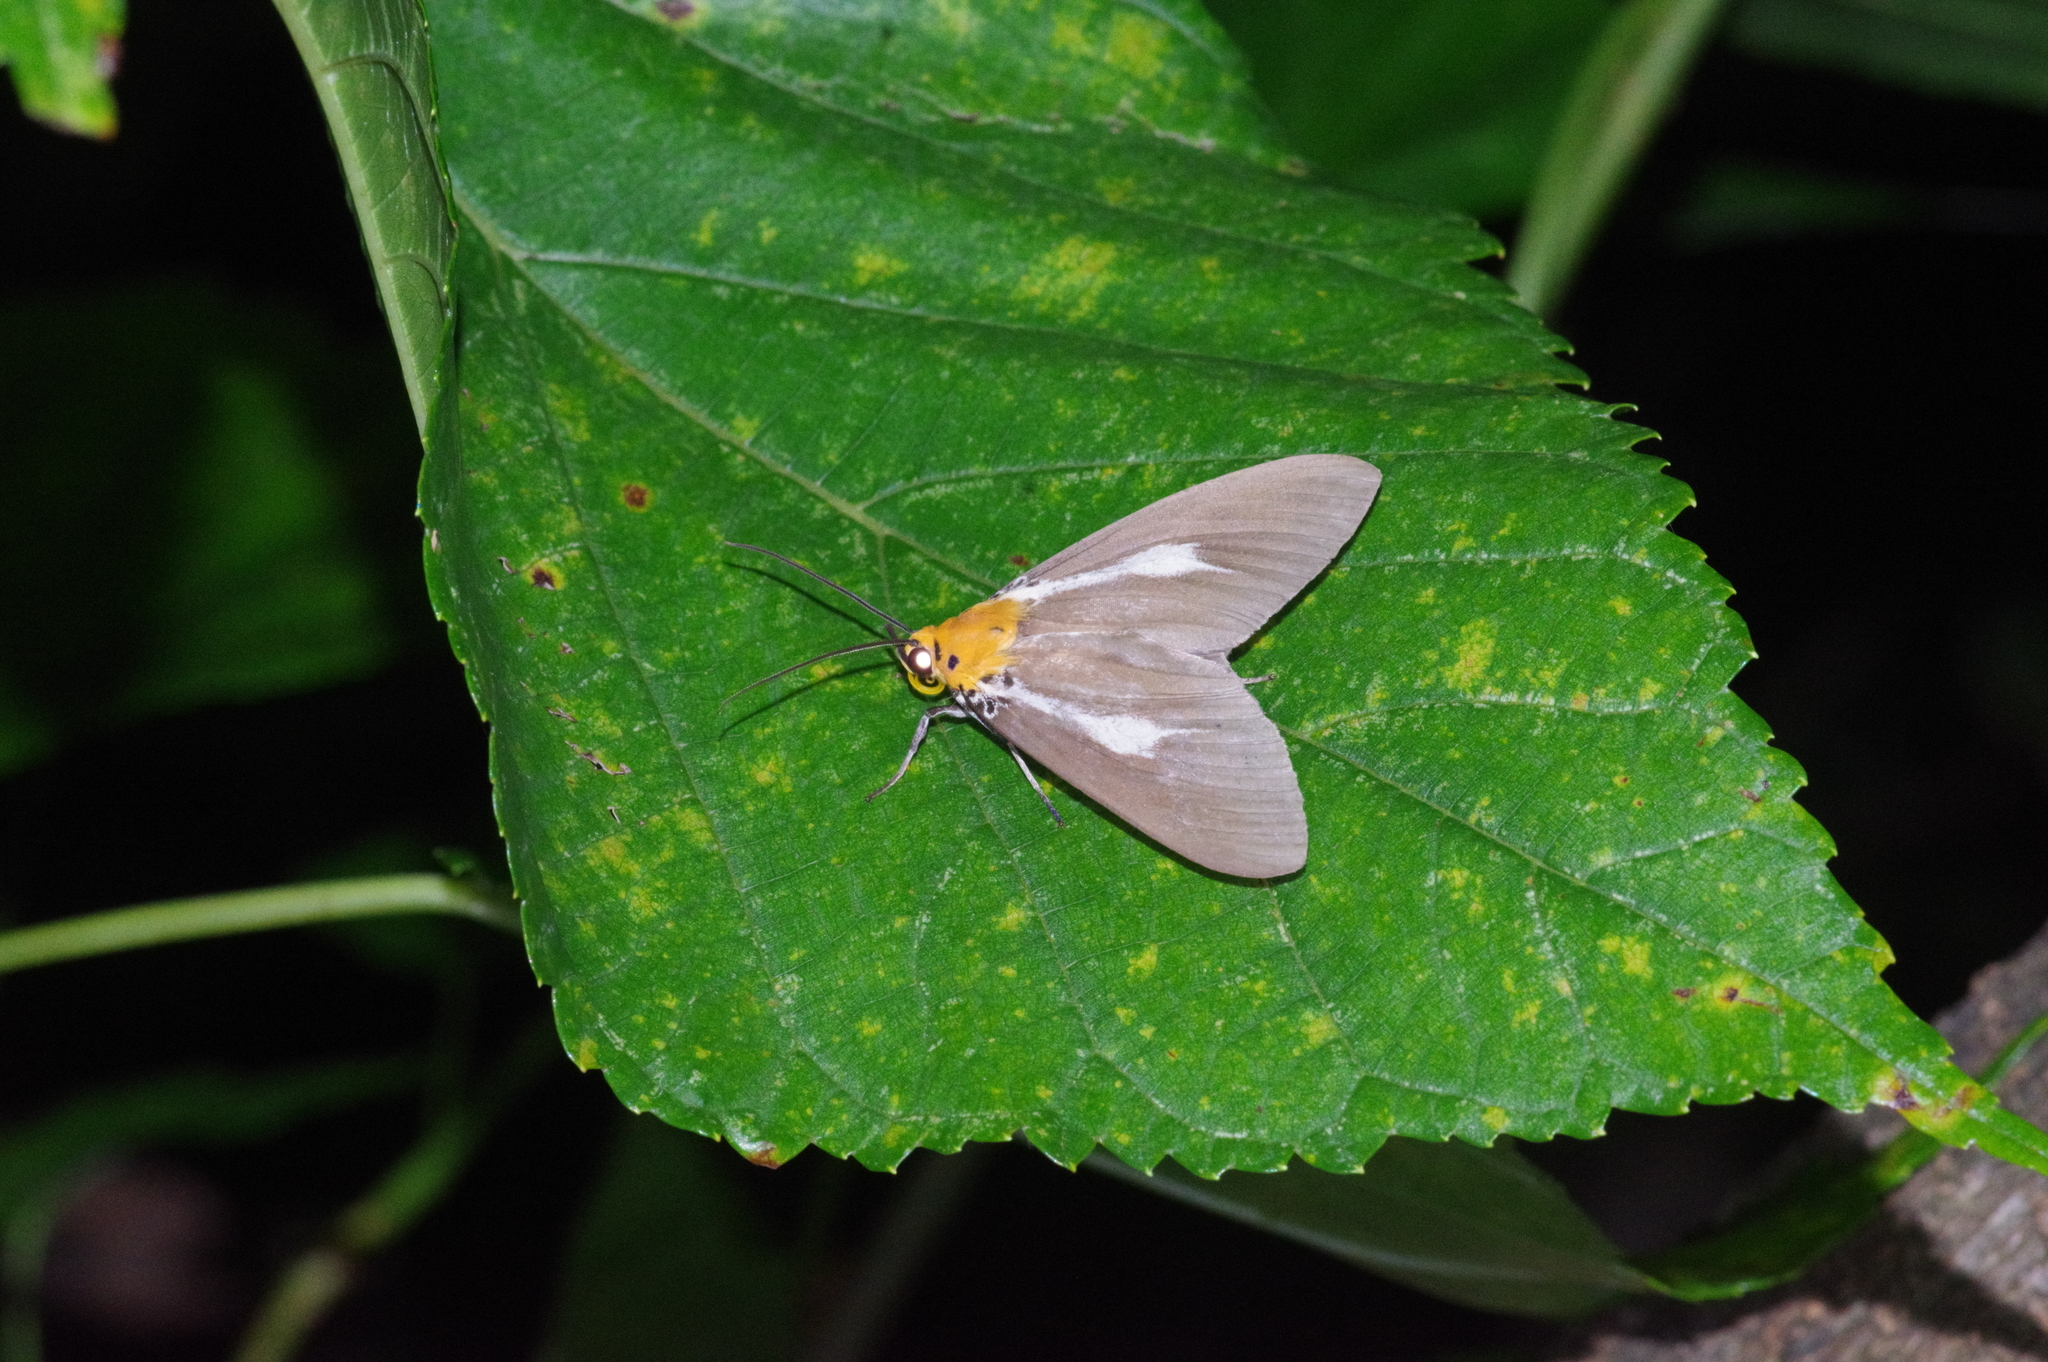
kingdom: Animalia
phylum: Arthropoda
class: Insecta
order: Lepidoptera
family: Erebidae
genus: Asota
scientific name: Asota heliconia
